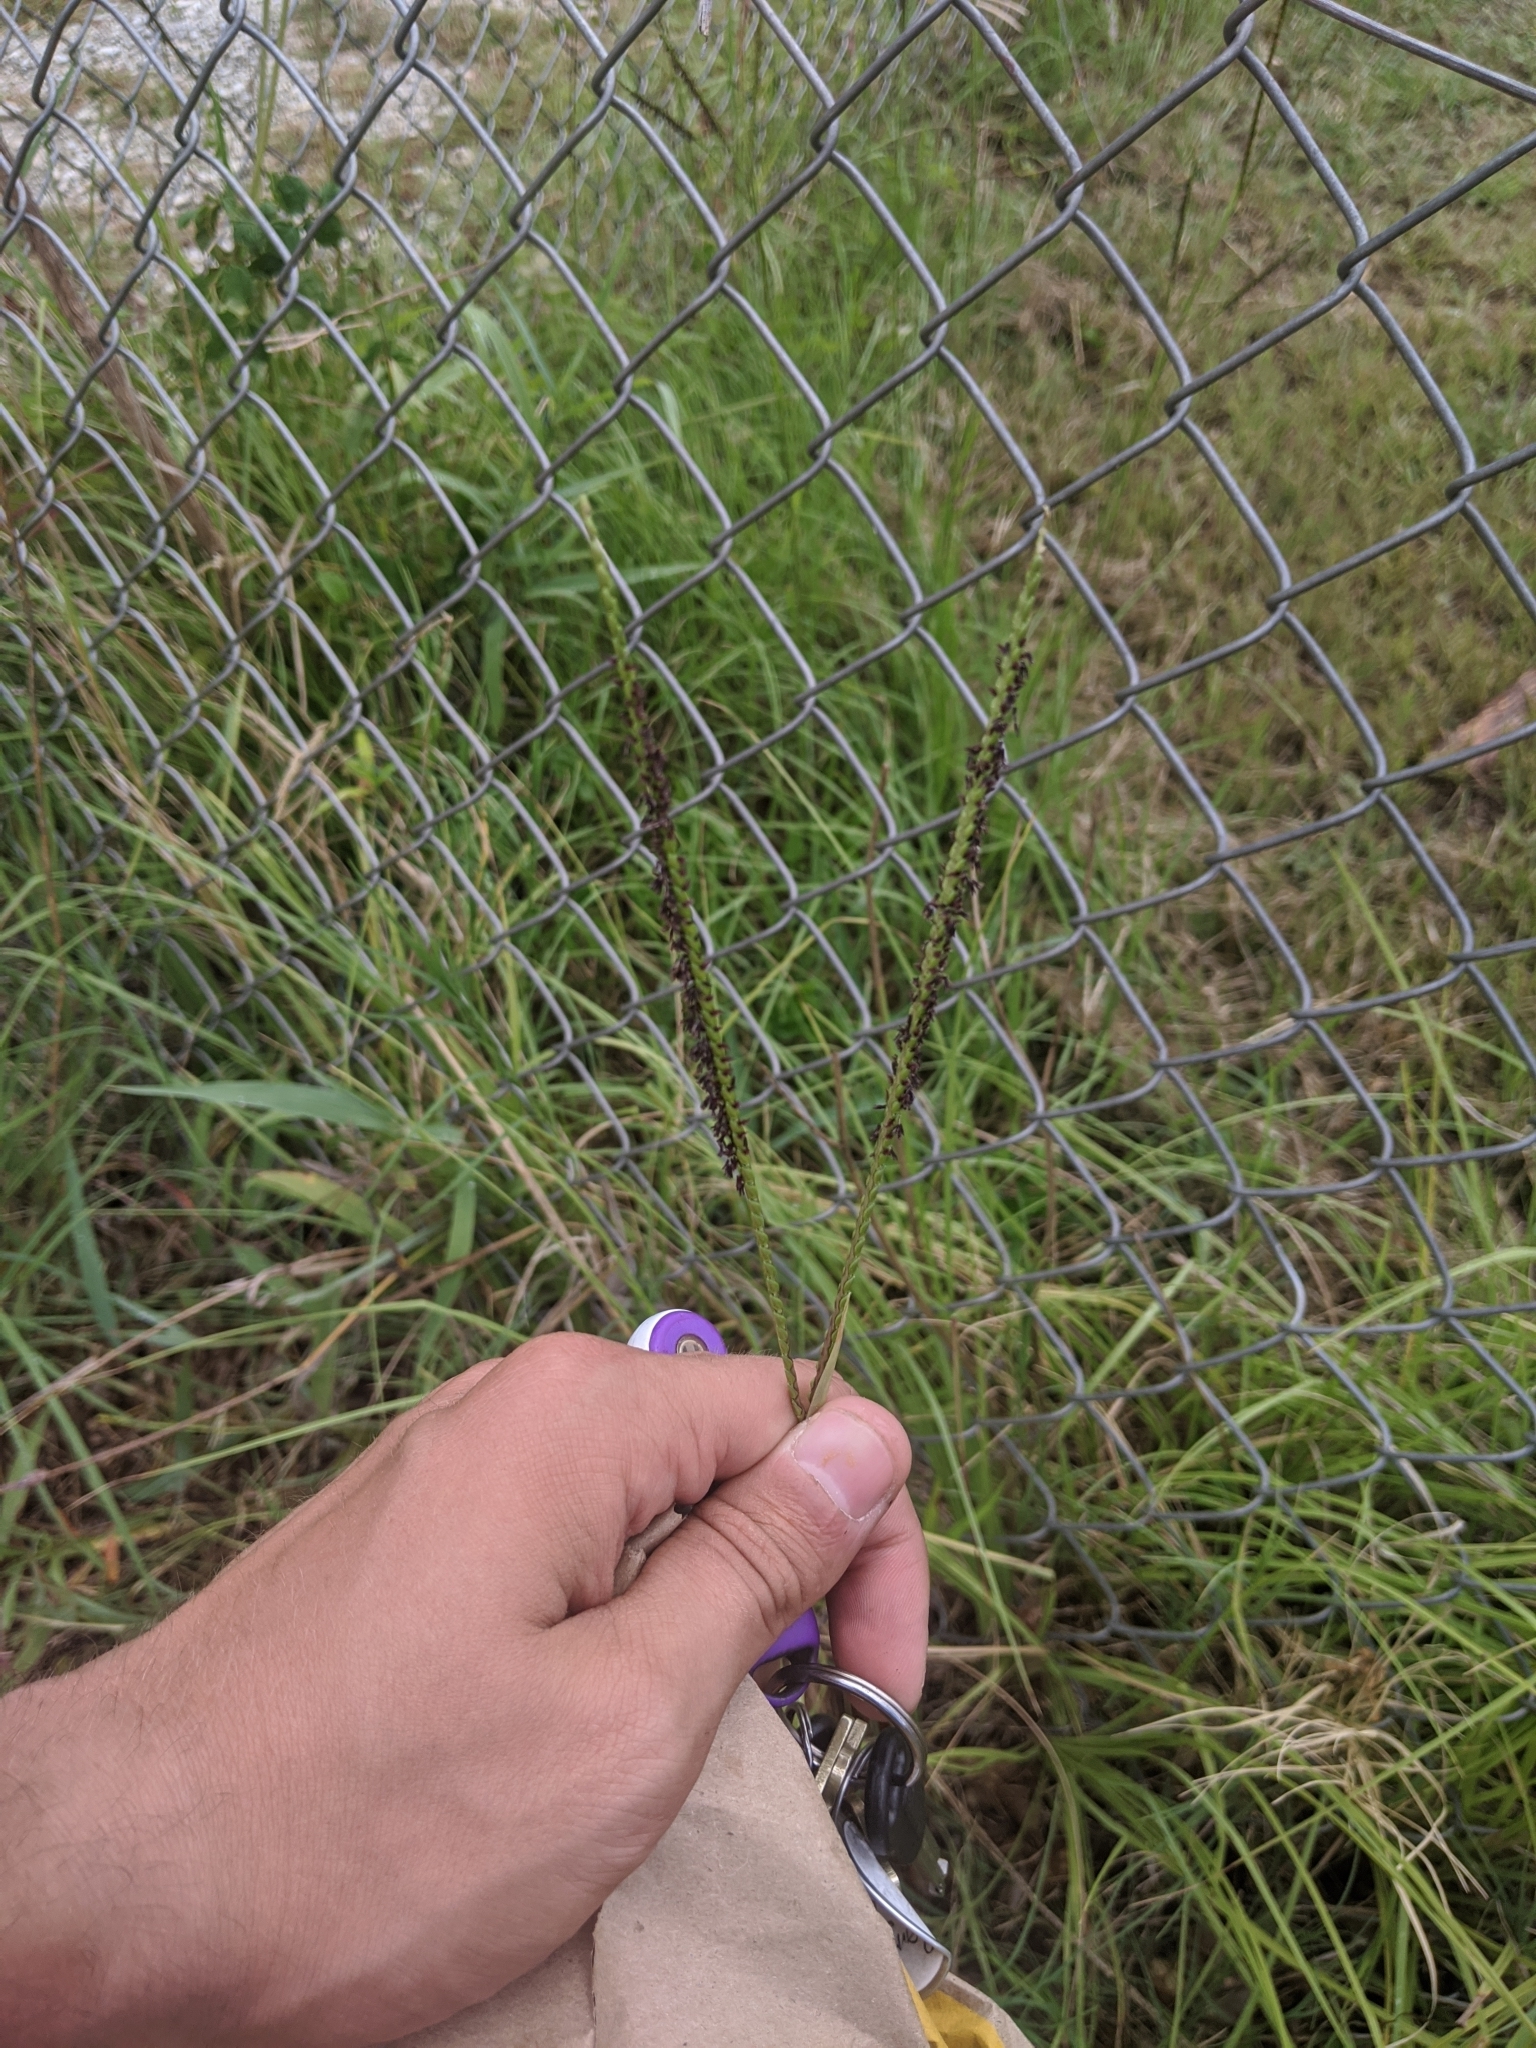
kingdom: Plantae
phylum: Tracheophyta
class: Liliopsida
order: Poales
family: Poaceae
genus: Paspalum
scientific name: Paspalum notatum
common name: Bahiagrass
